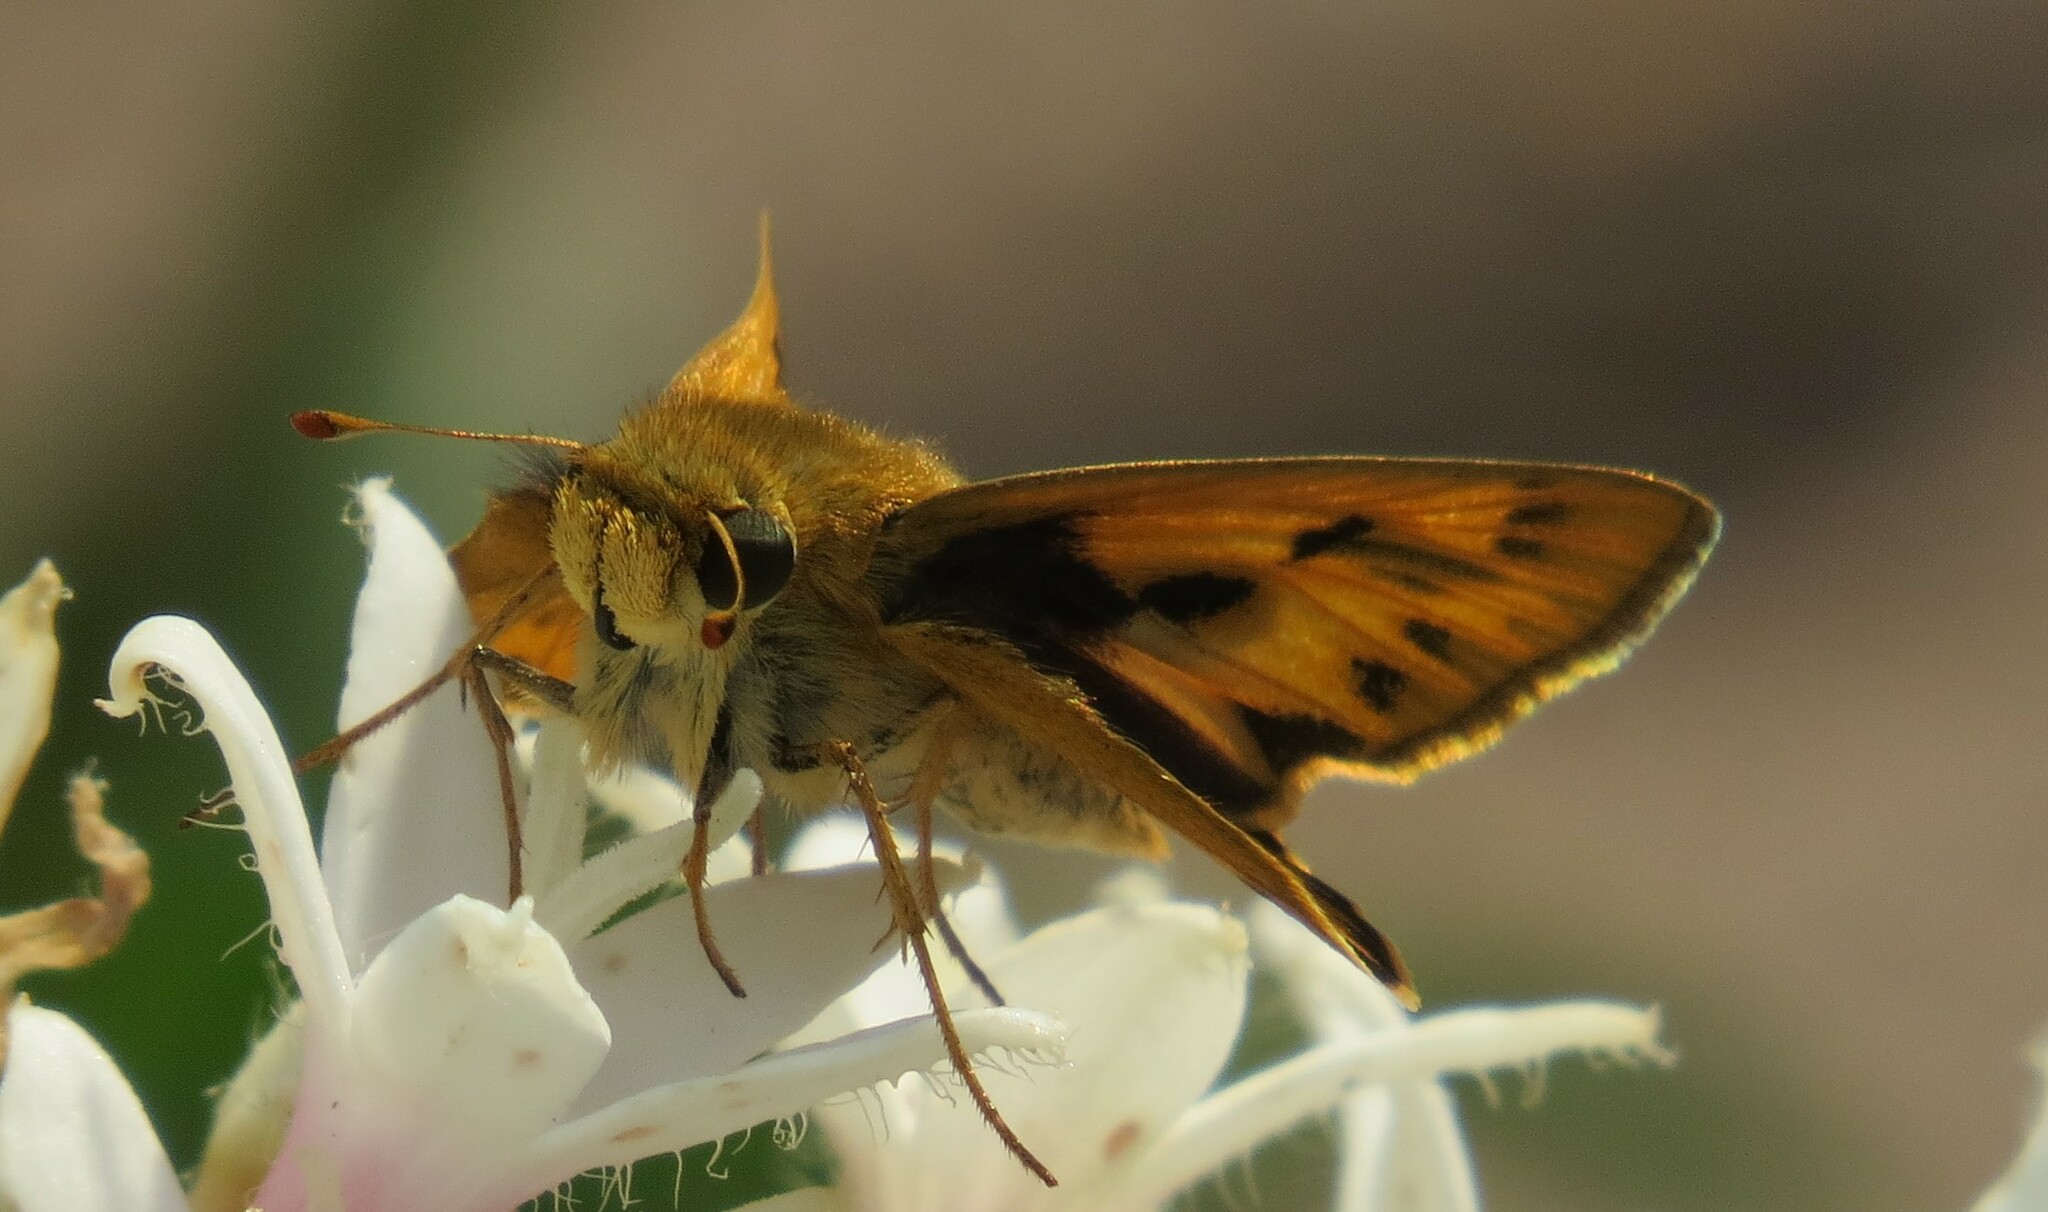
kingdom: Animalia
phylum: Arthropoda
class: Insecta
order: Lepidoptera
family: Hesperiidae
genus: Hylephila
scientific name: Hylephila phyleus
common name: Fiery skipper
